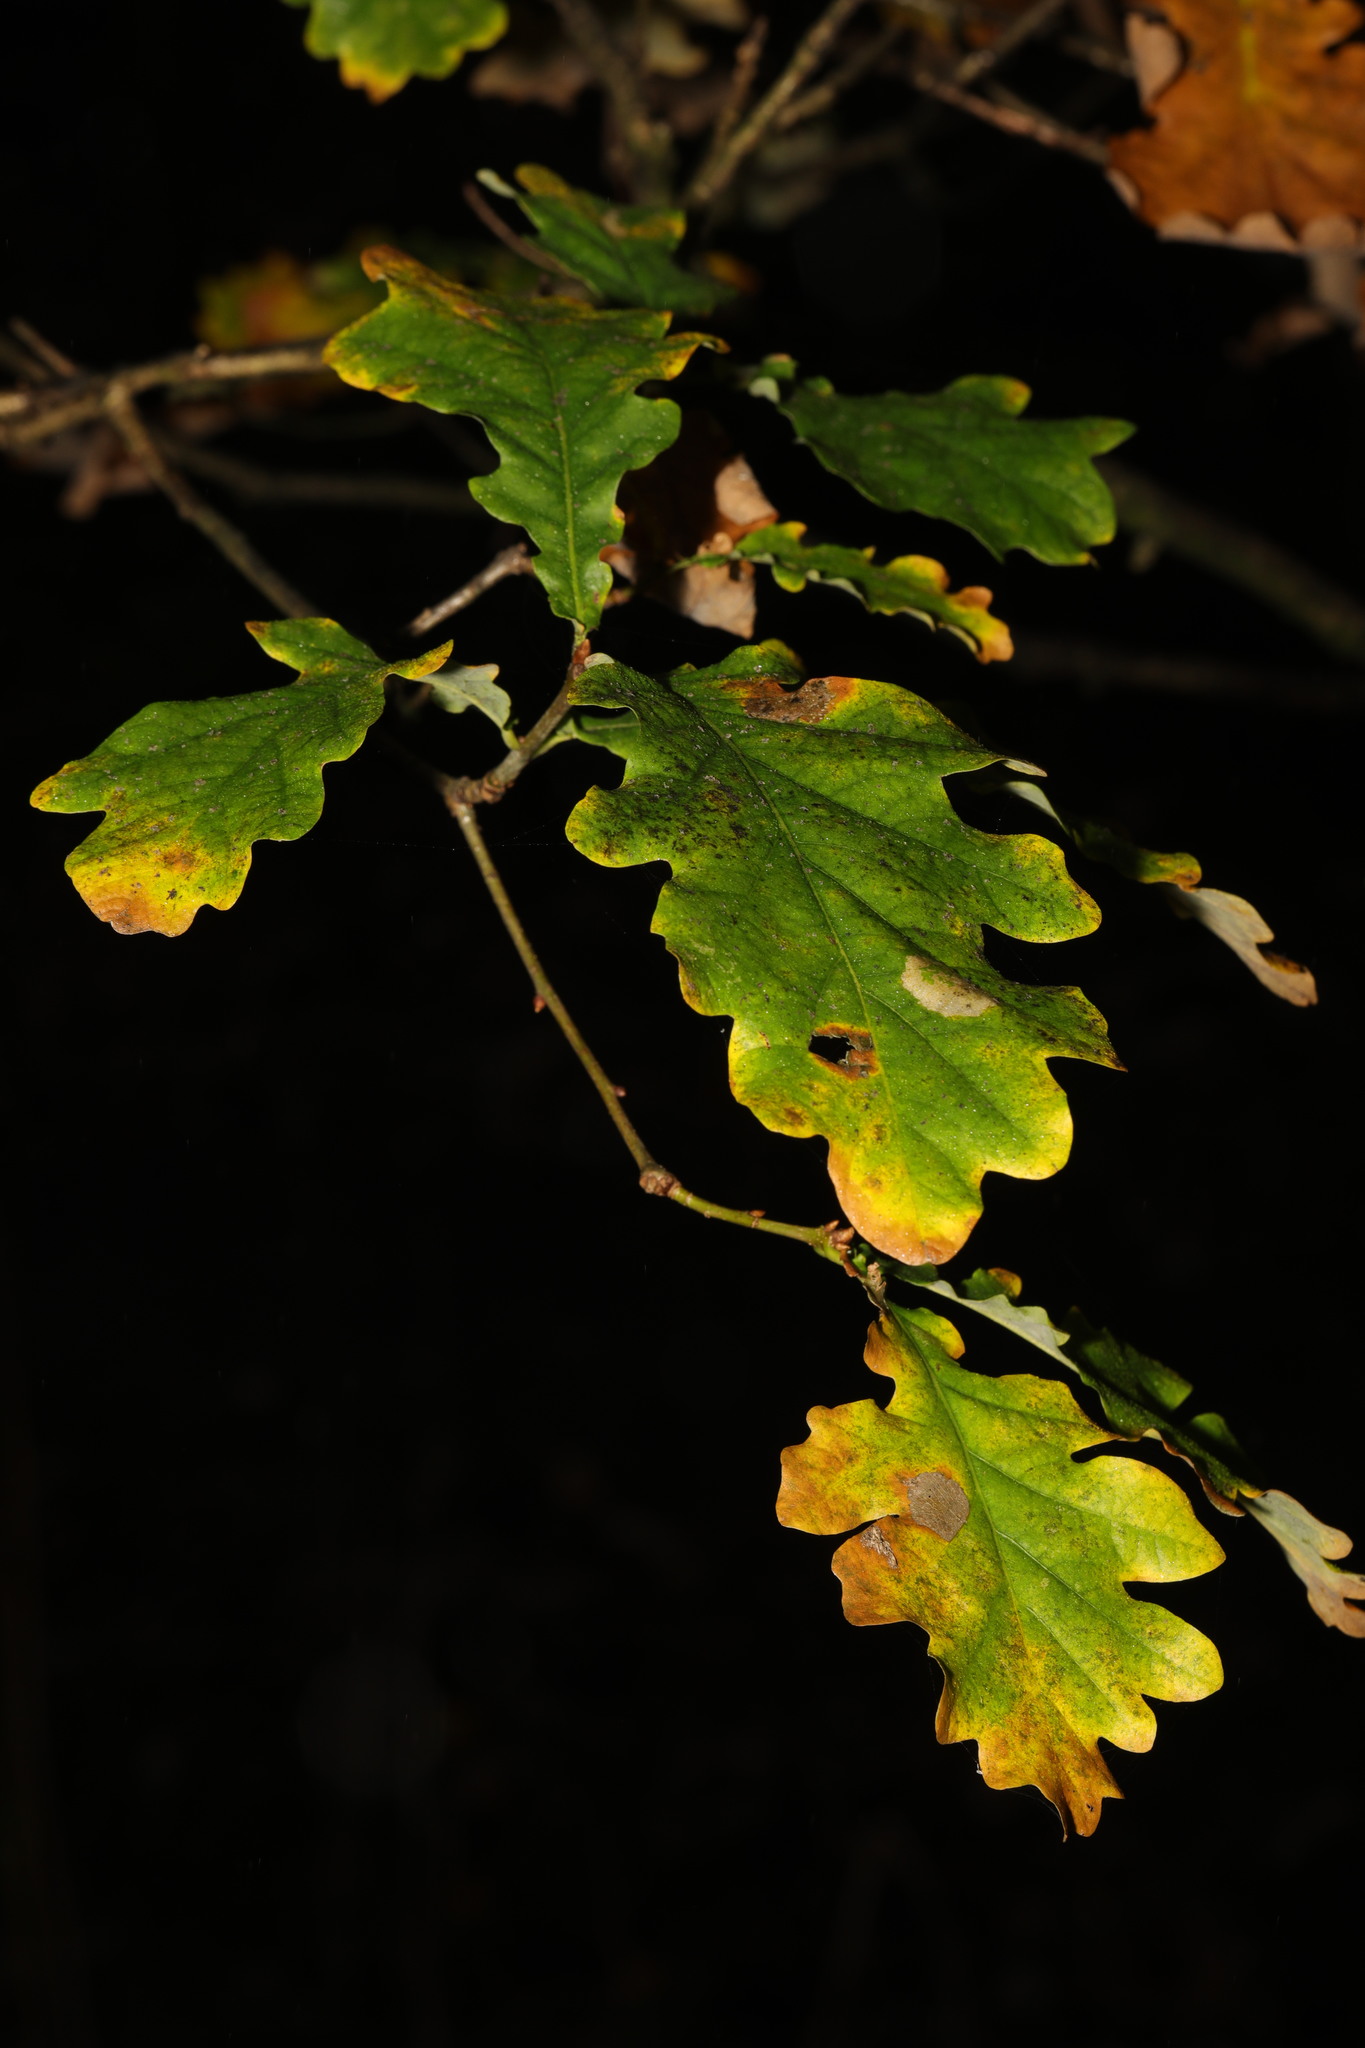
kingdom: Plantae
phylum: Tracheophyta
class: Magnoliopsida
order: Fagales
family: Fagaceae
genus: Quercus
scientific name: Quercus robur
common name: Pedunculate oak
